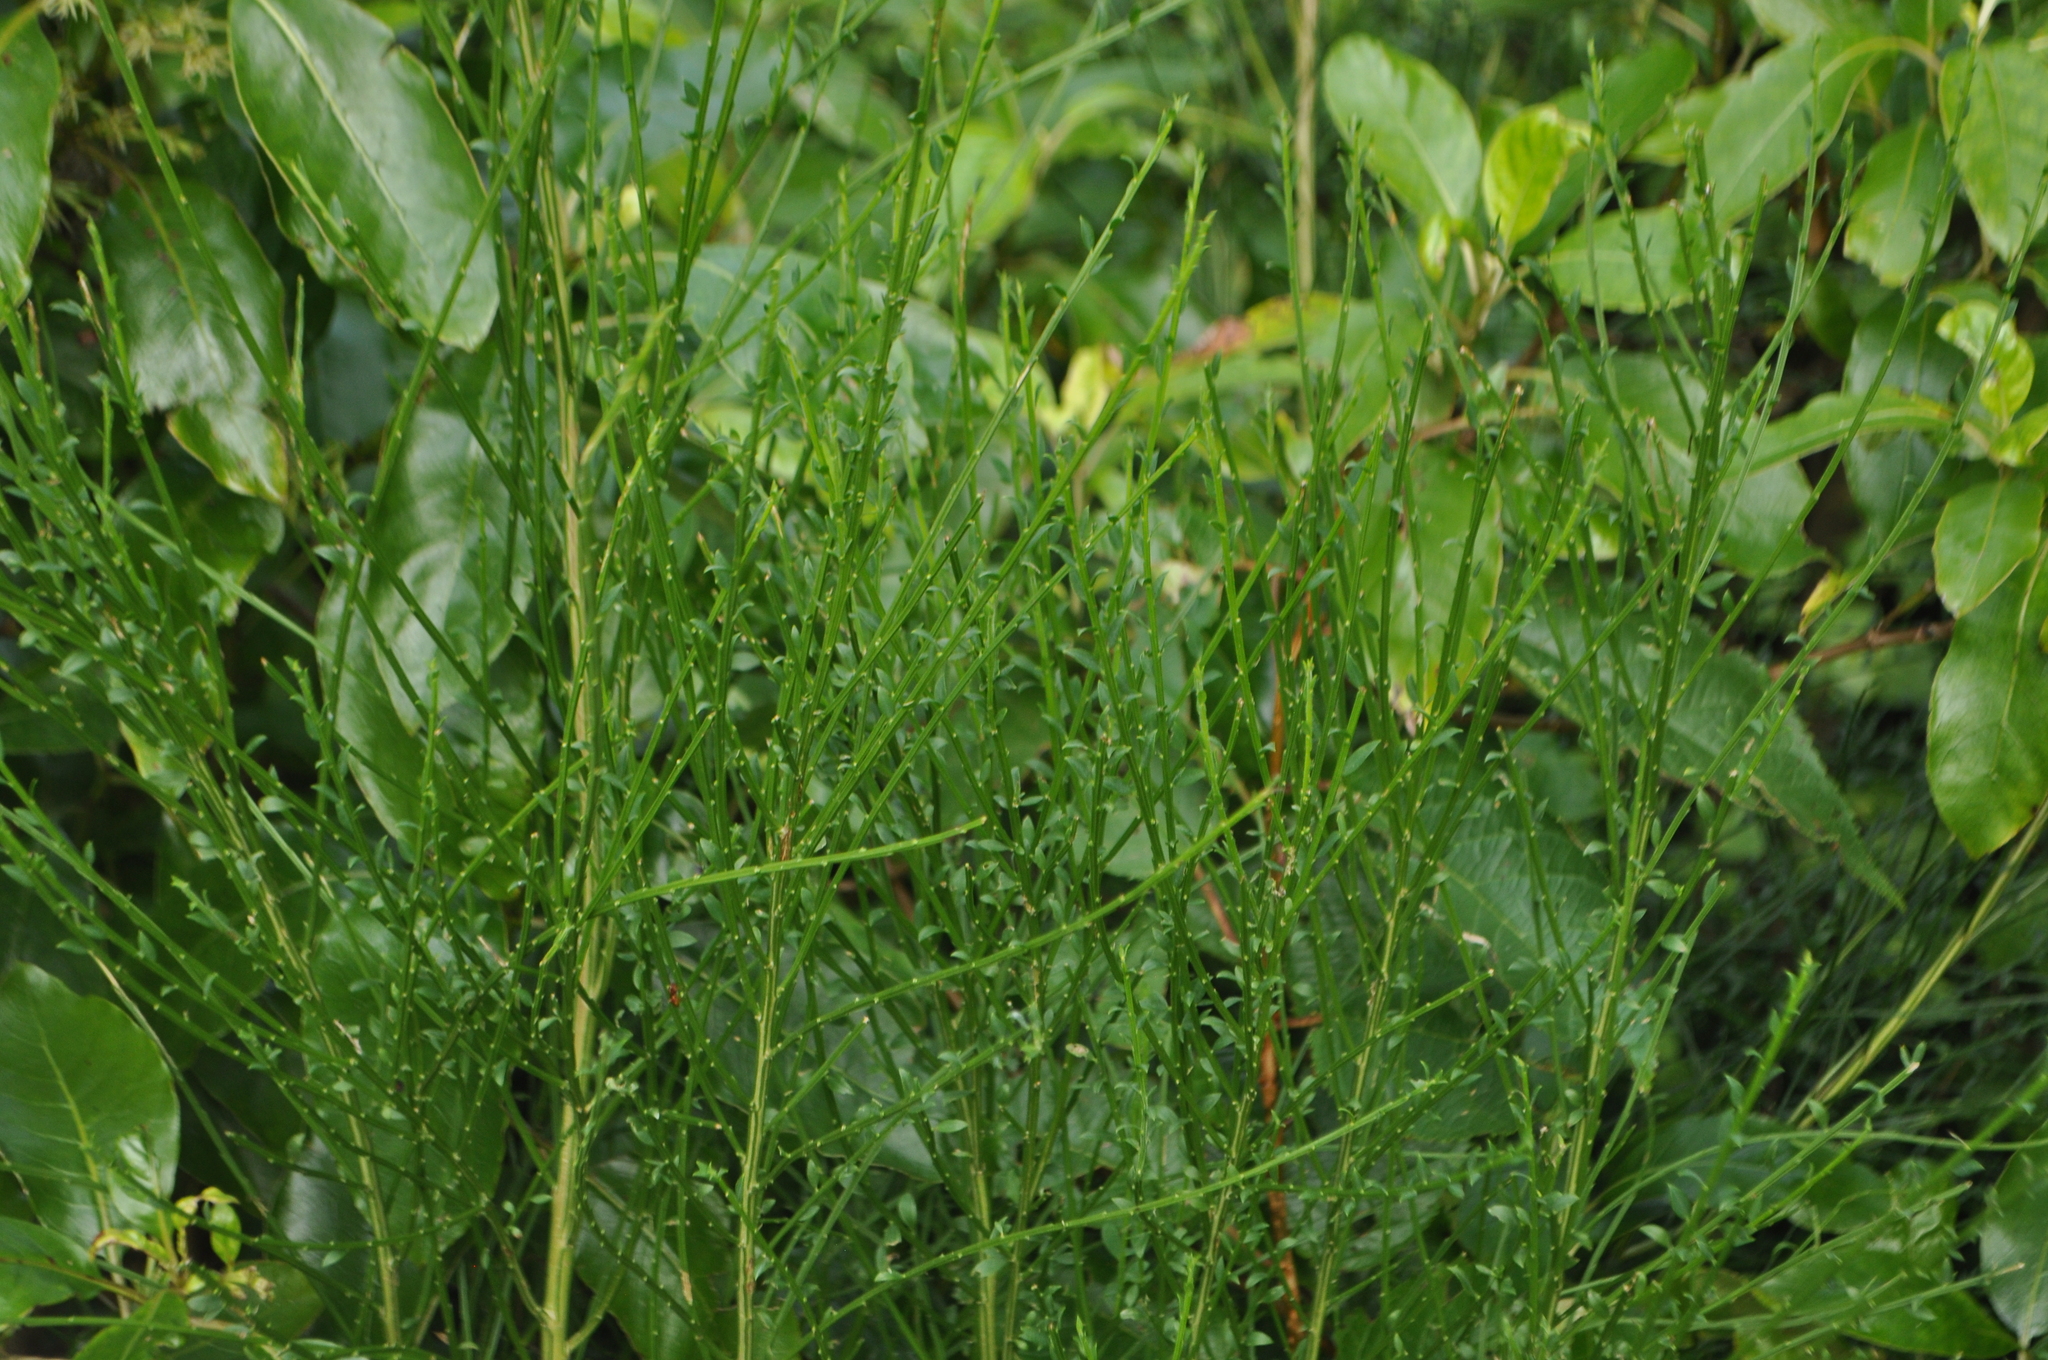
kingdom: Plantae
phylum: Tracheophyta
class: Magnoliopsida
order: Fabales
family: Fabaceae
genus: Cytisus
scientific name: Cytisus scoparius
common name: Scotch broom
